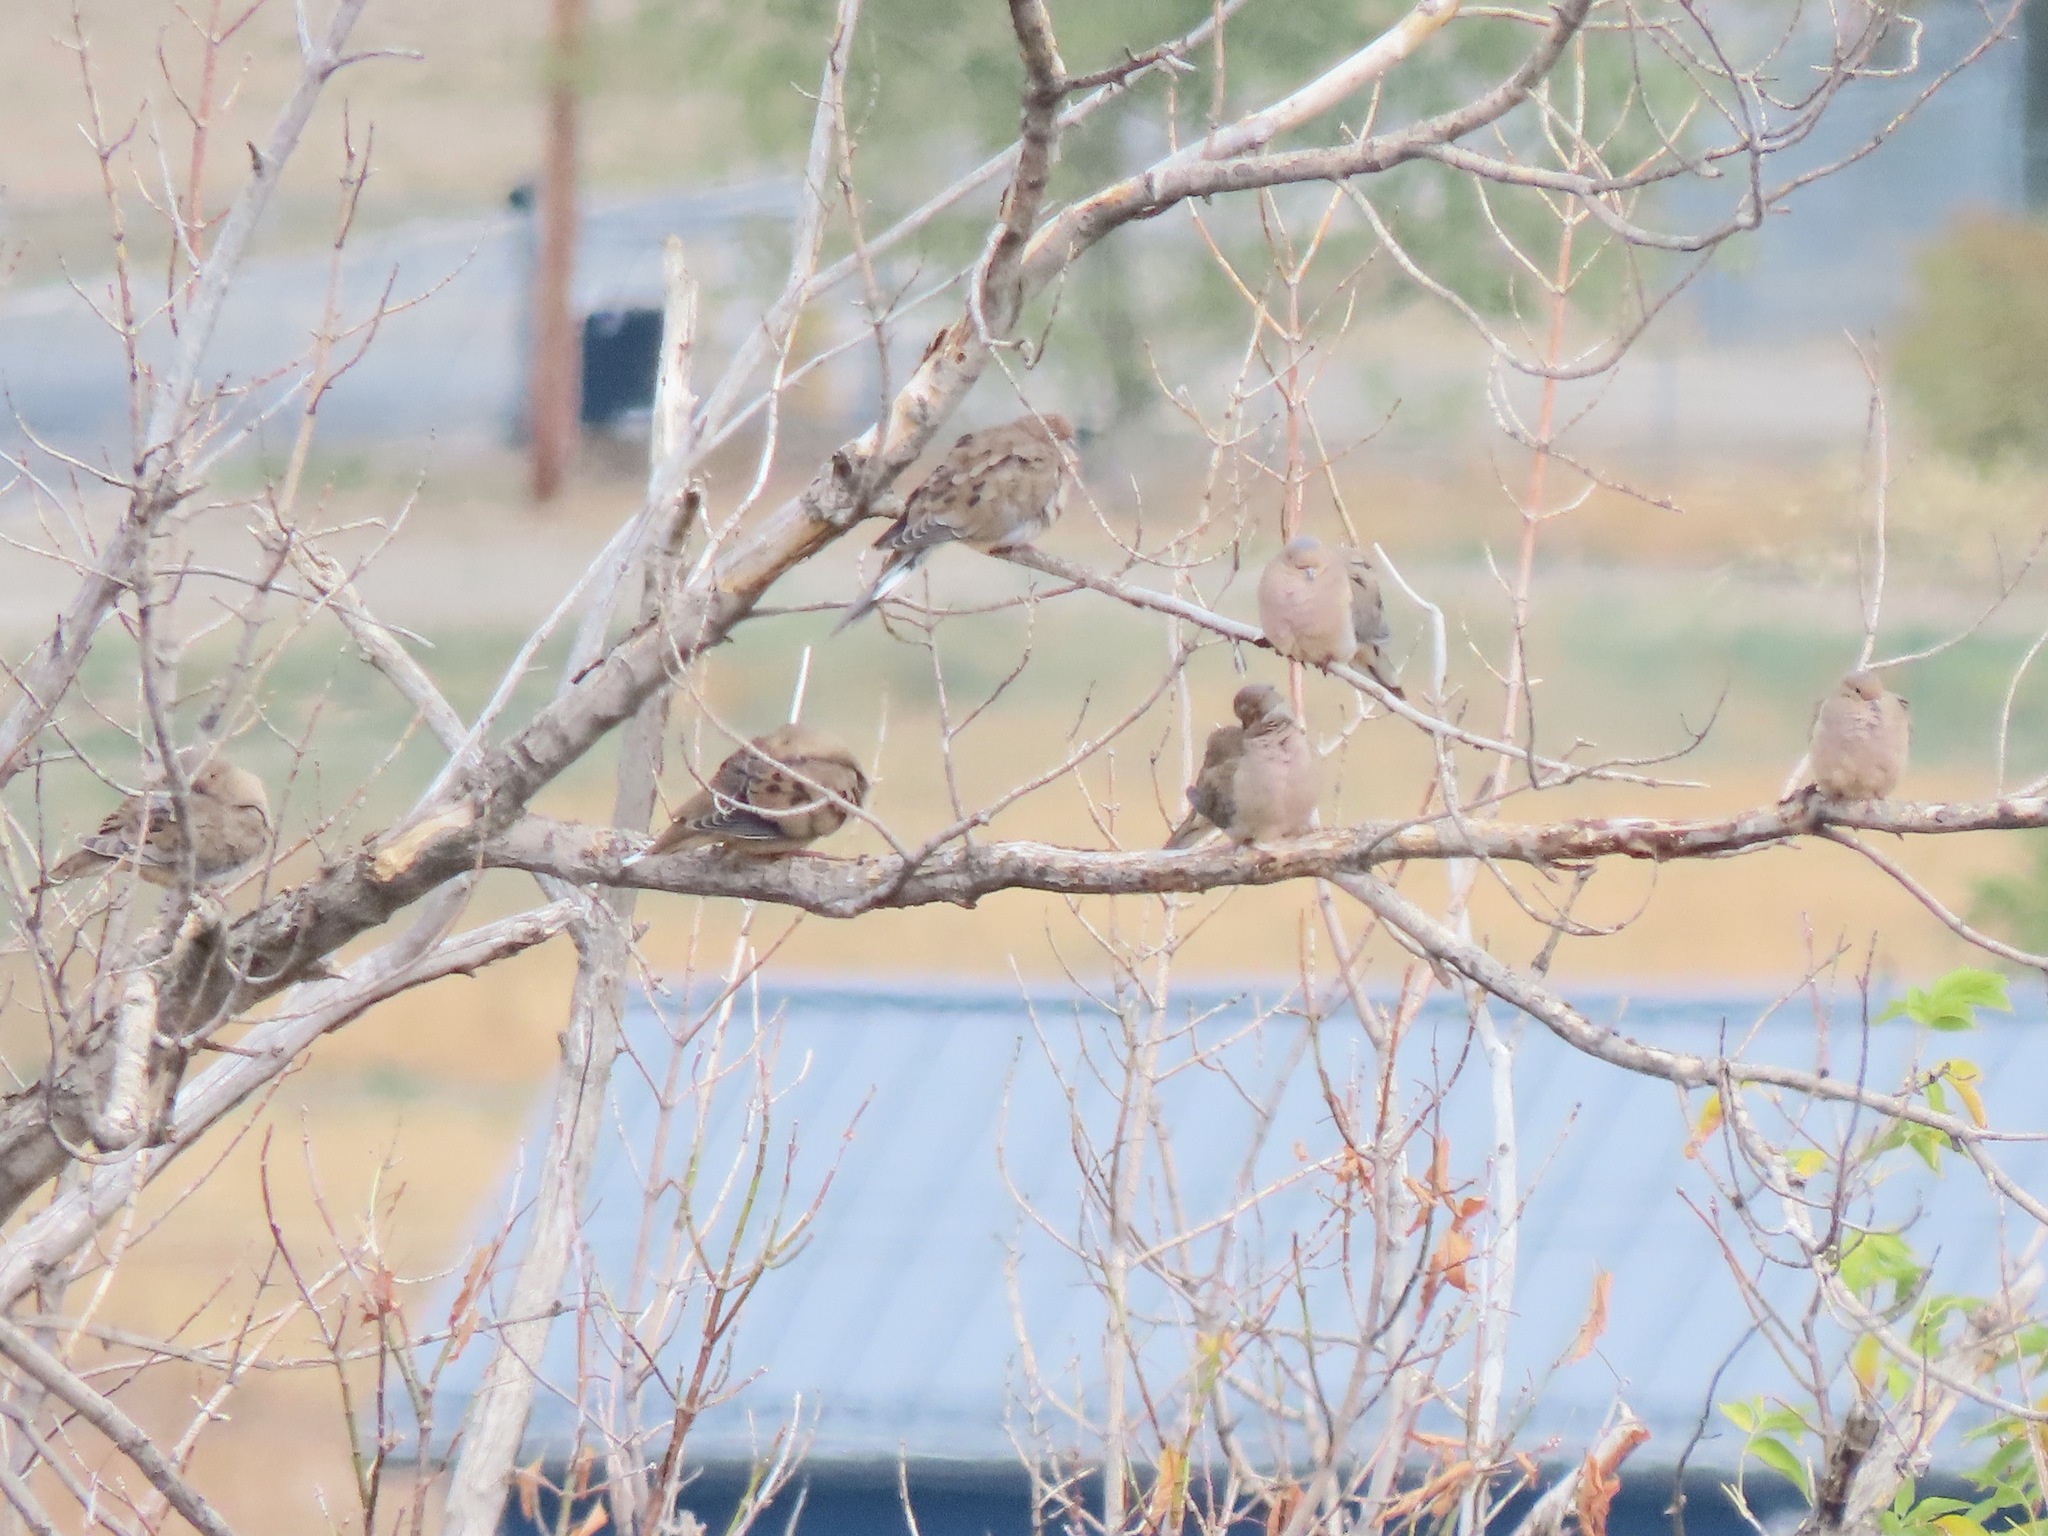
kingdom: Animalia
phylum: Chordata
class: Aves
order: Columbiformes
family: Columbidae
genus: Zenaida
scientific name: Zenaida macroura
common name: Mourning dove
